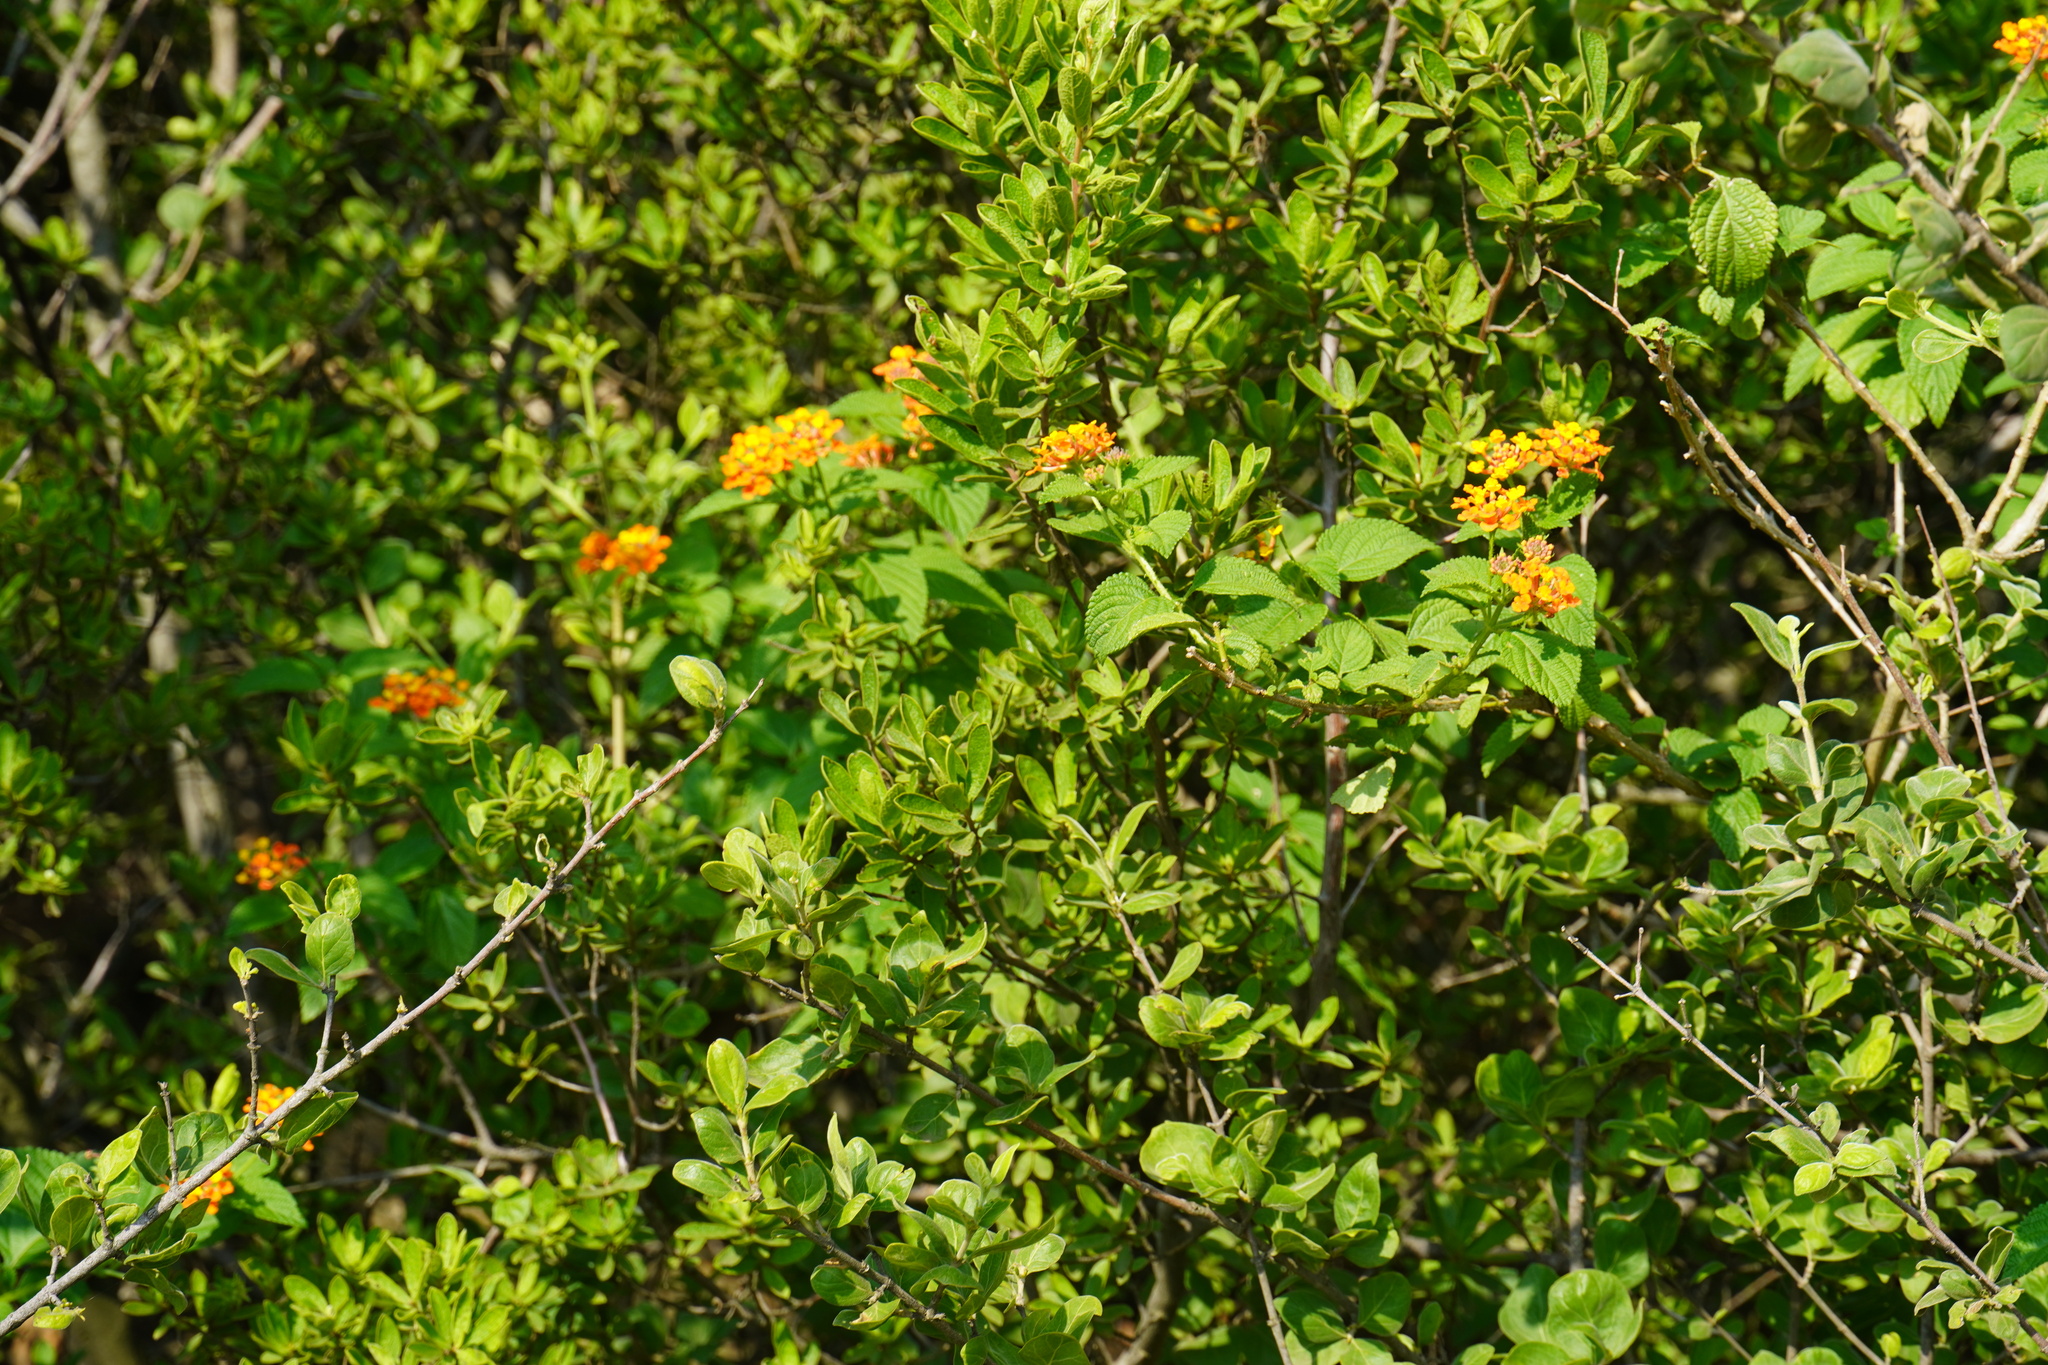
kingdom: Plantae
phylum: Tracheophyta
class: Magnoliopsida
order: Lamiales
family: Verbenaceae
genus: Lantana
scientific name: Lantana camara
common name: Lantana
